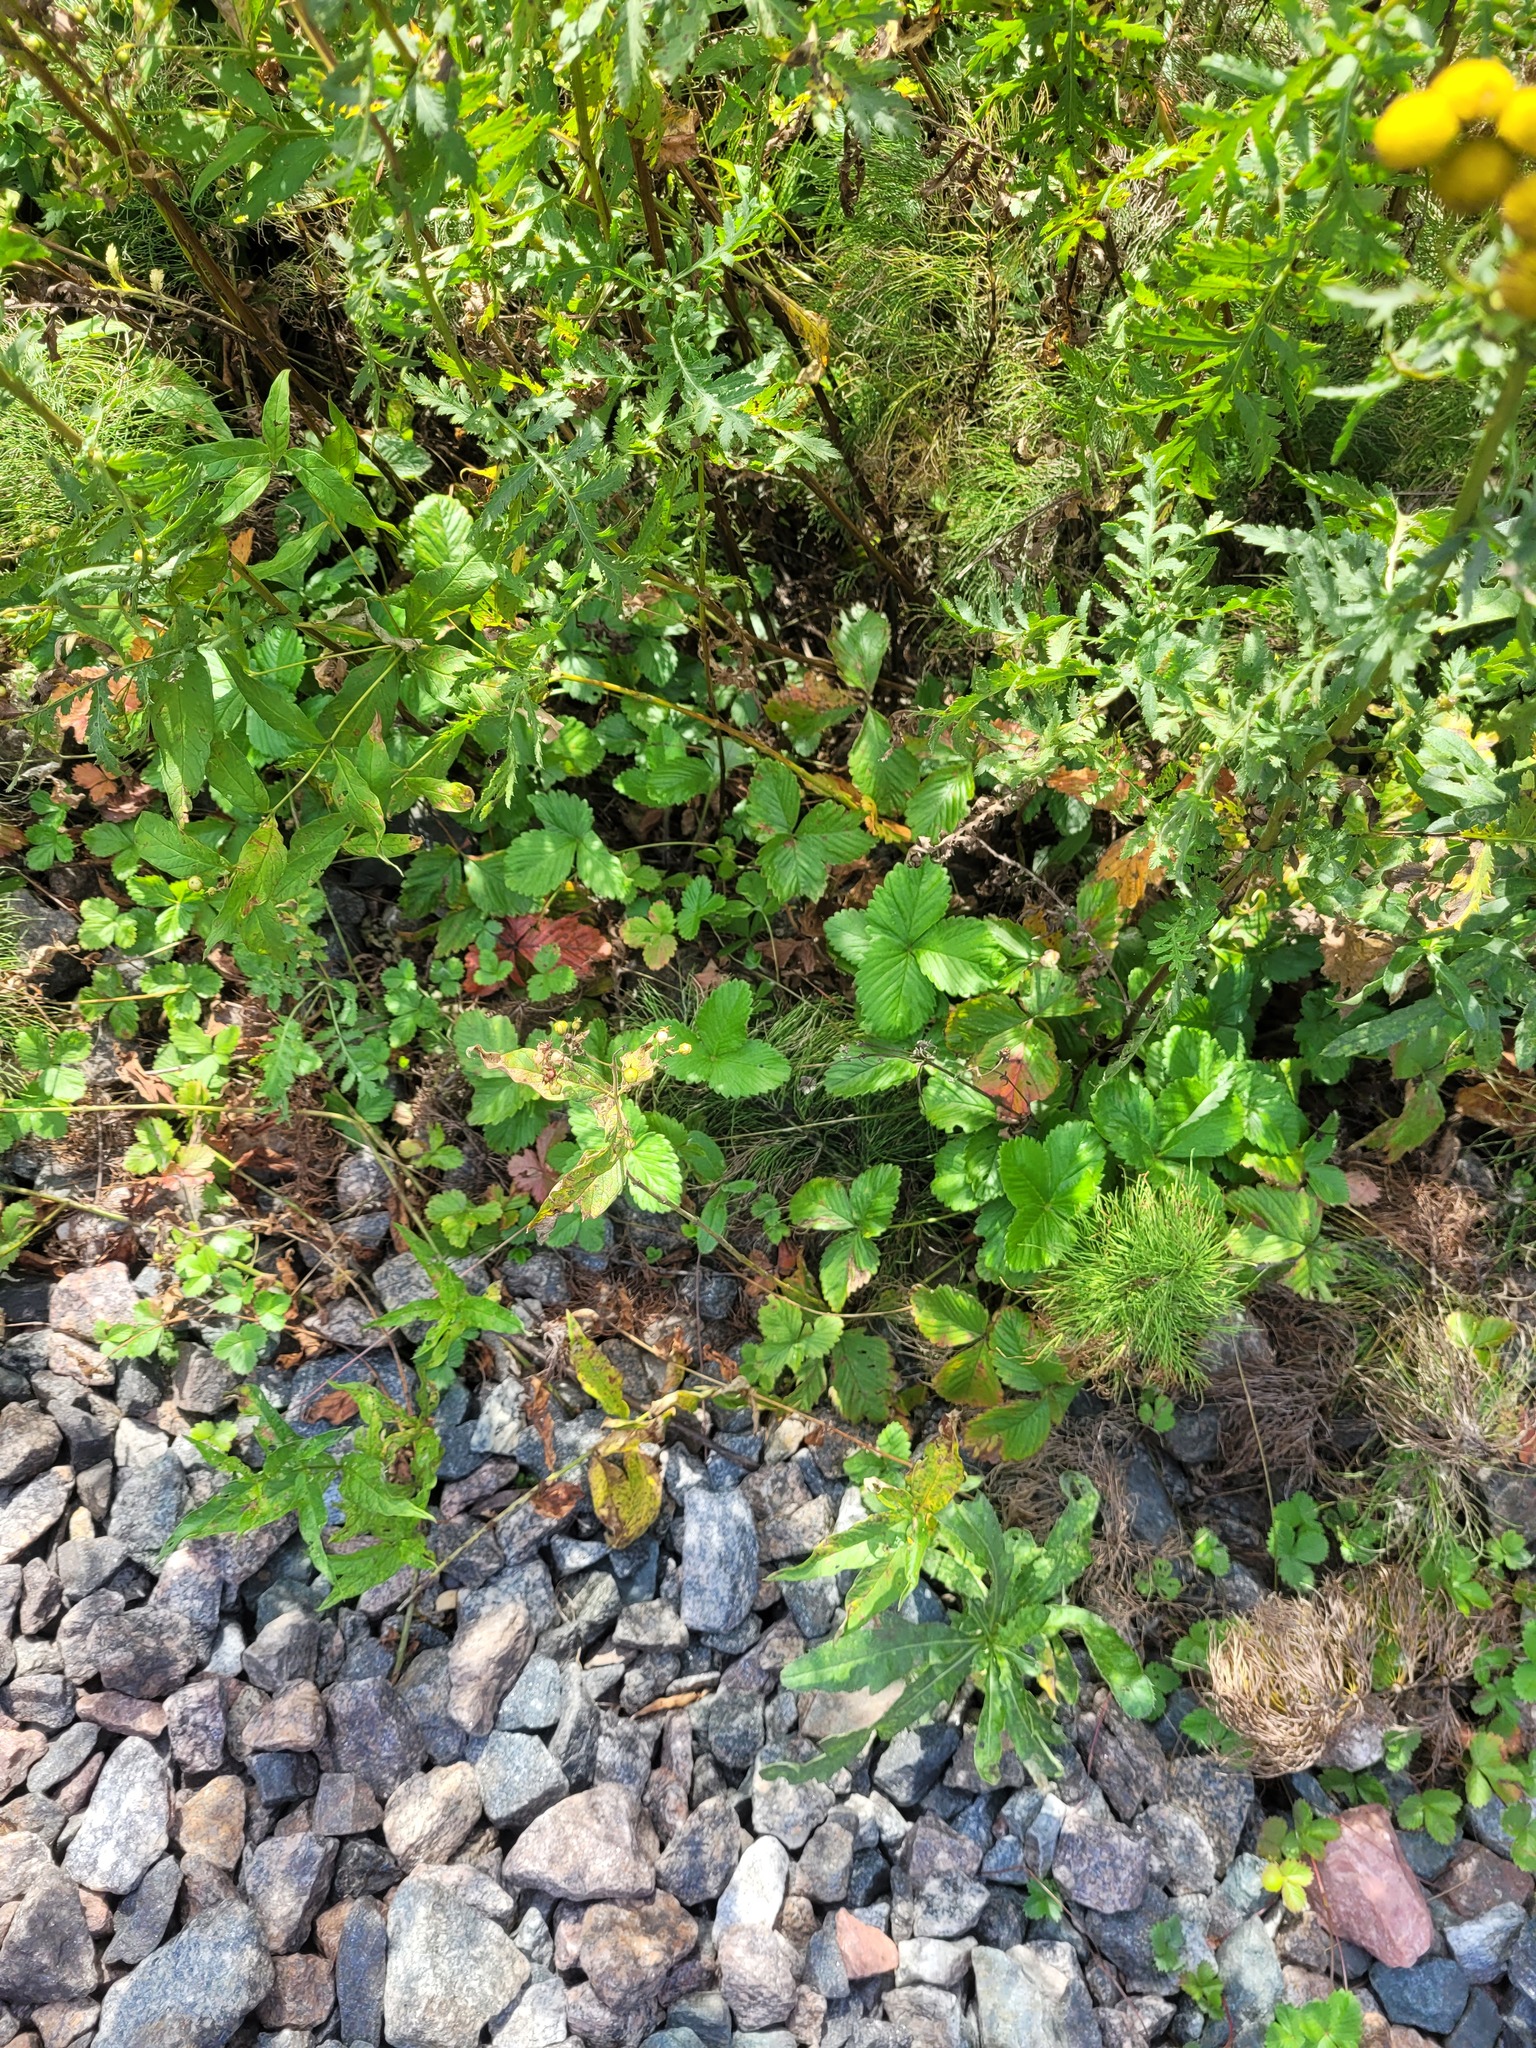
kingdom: Plantae
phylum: Tracheophyta
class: Magnoliopsida
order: Ericales
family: Primulaceae
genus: Lysimachia
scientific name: Lysimachia vulgaris
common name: Yellow loosestrife
